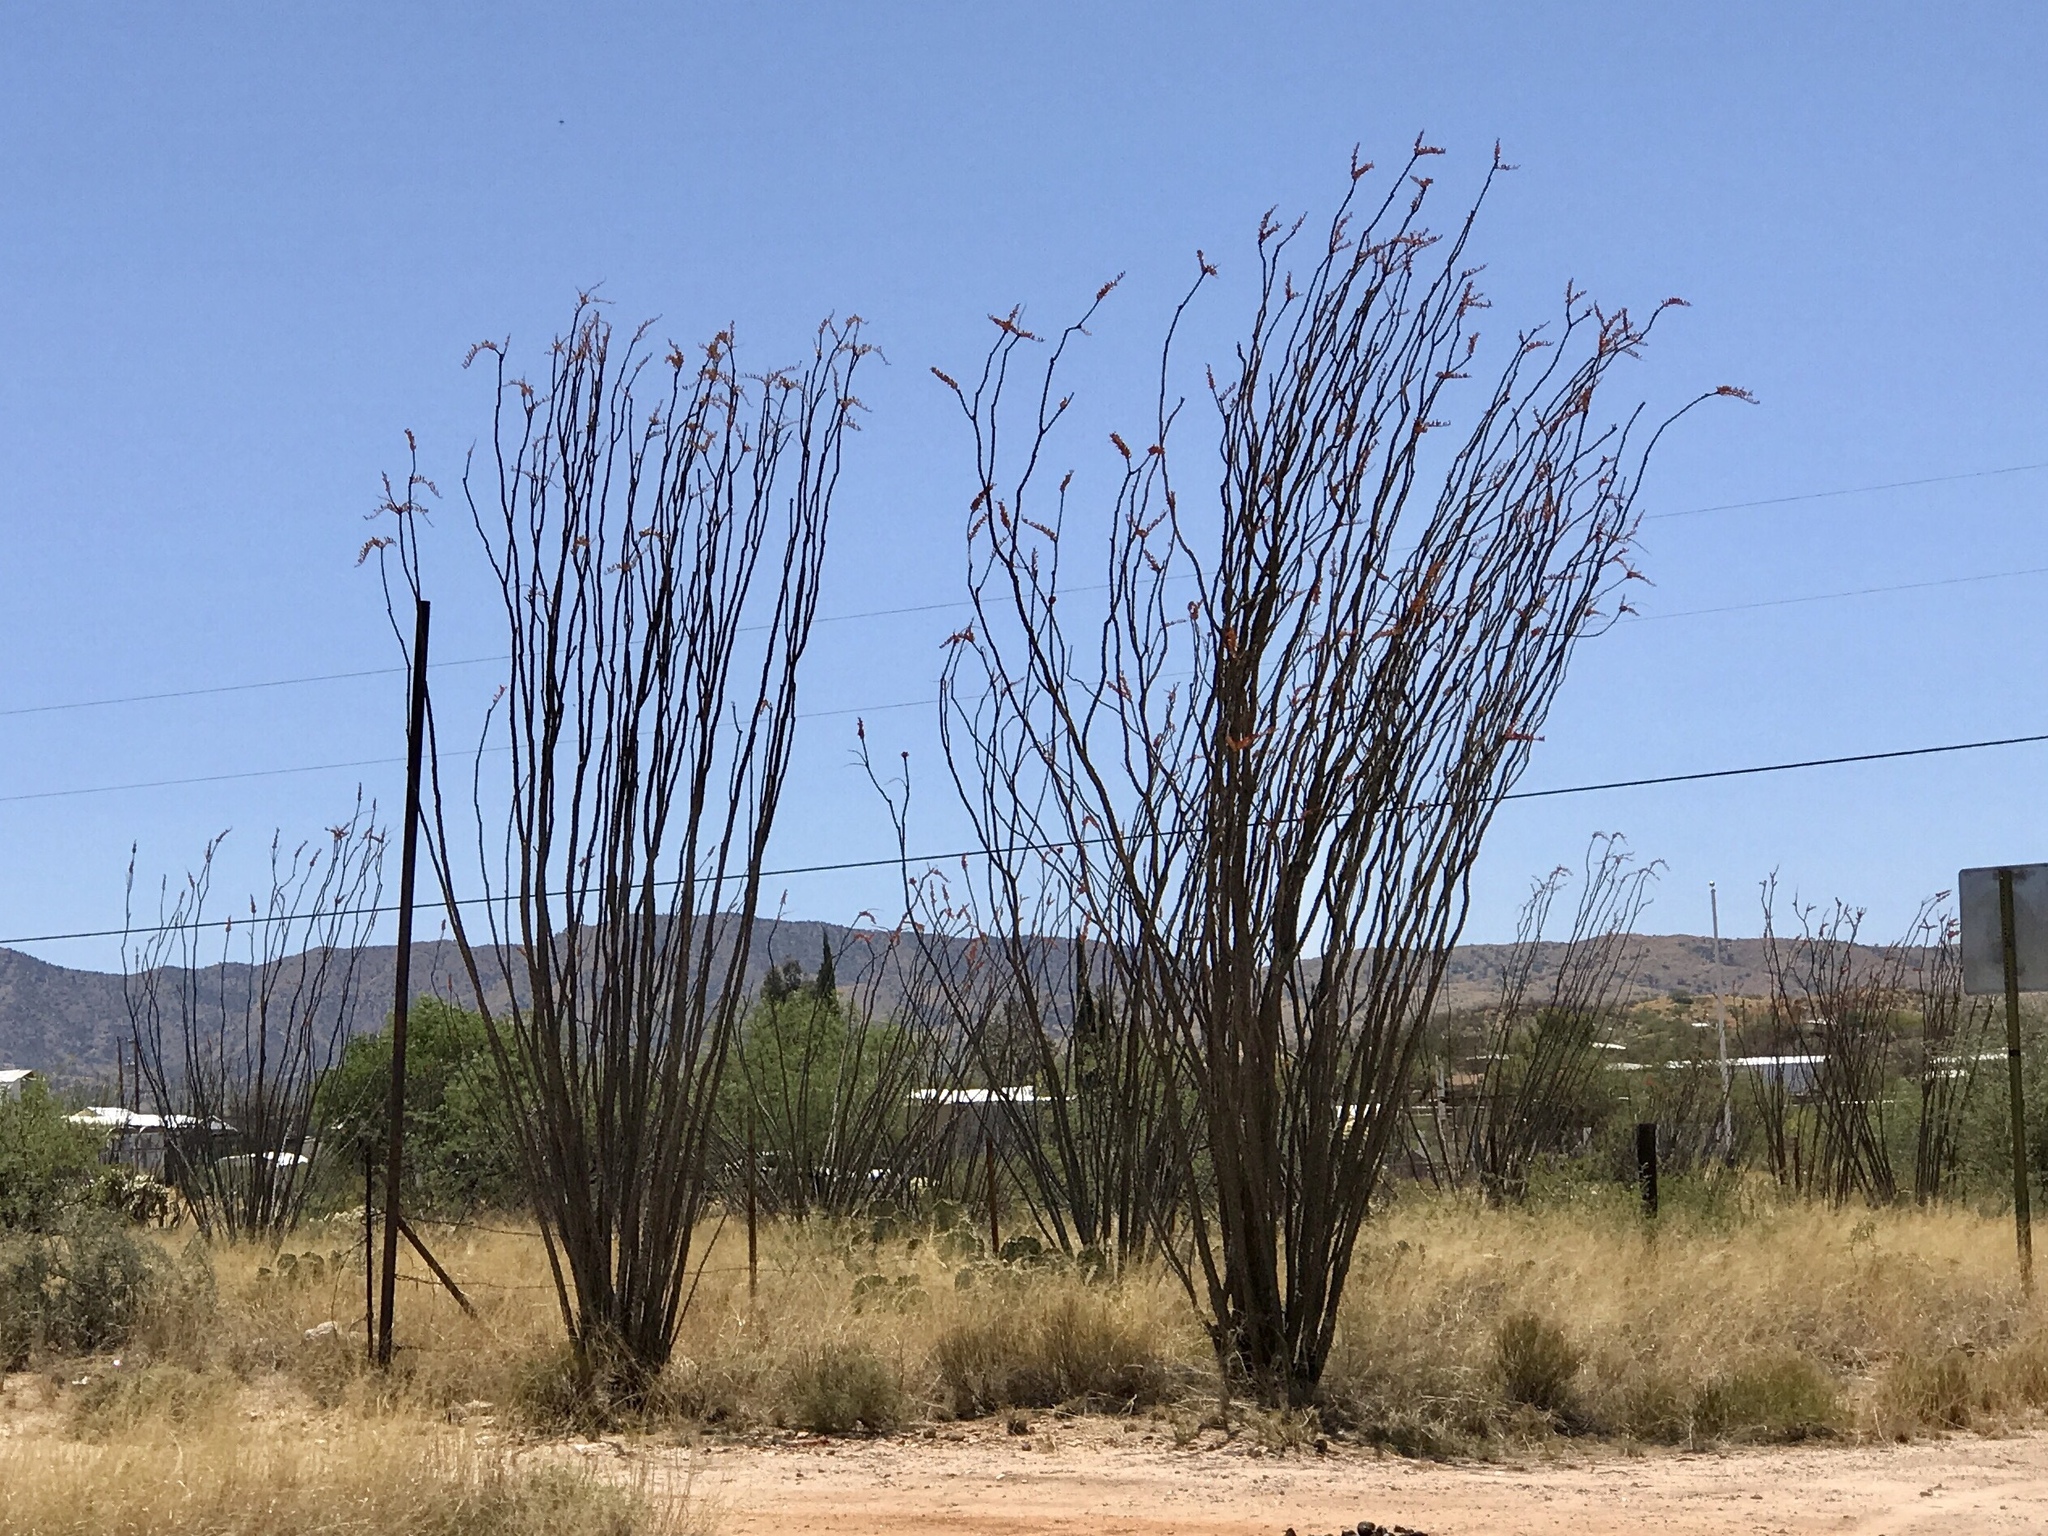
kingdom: Plantae
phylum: Tracheophyta
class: Magnoliopsida
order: Ericales
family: Fouquieriaceae
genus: Fouquieria
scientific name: Fouquieria splendens
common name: Vine-cactus
